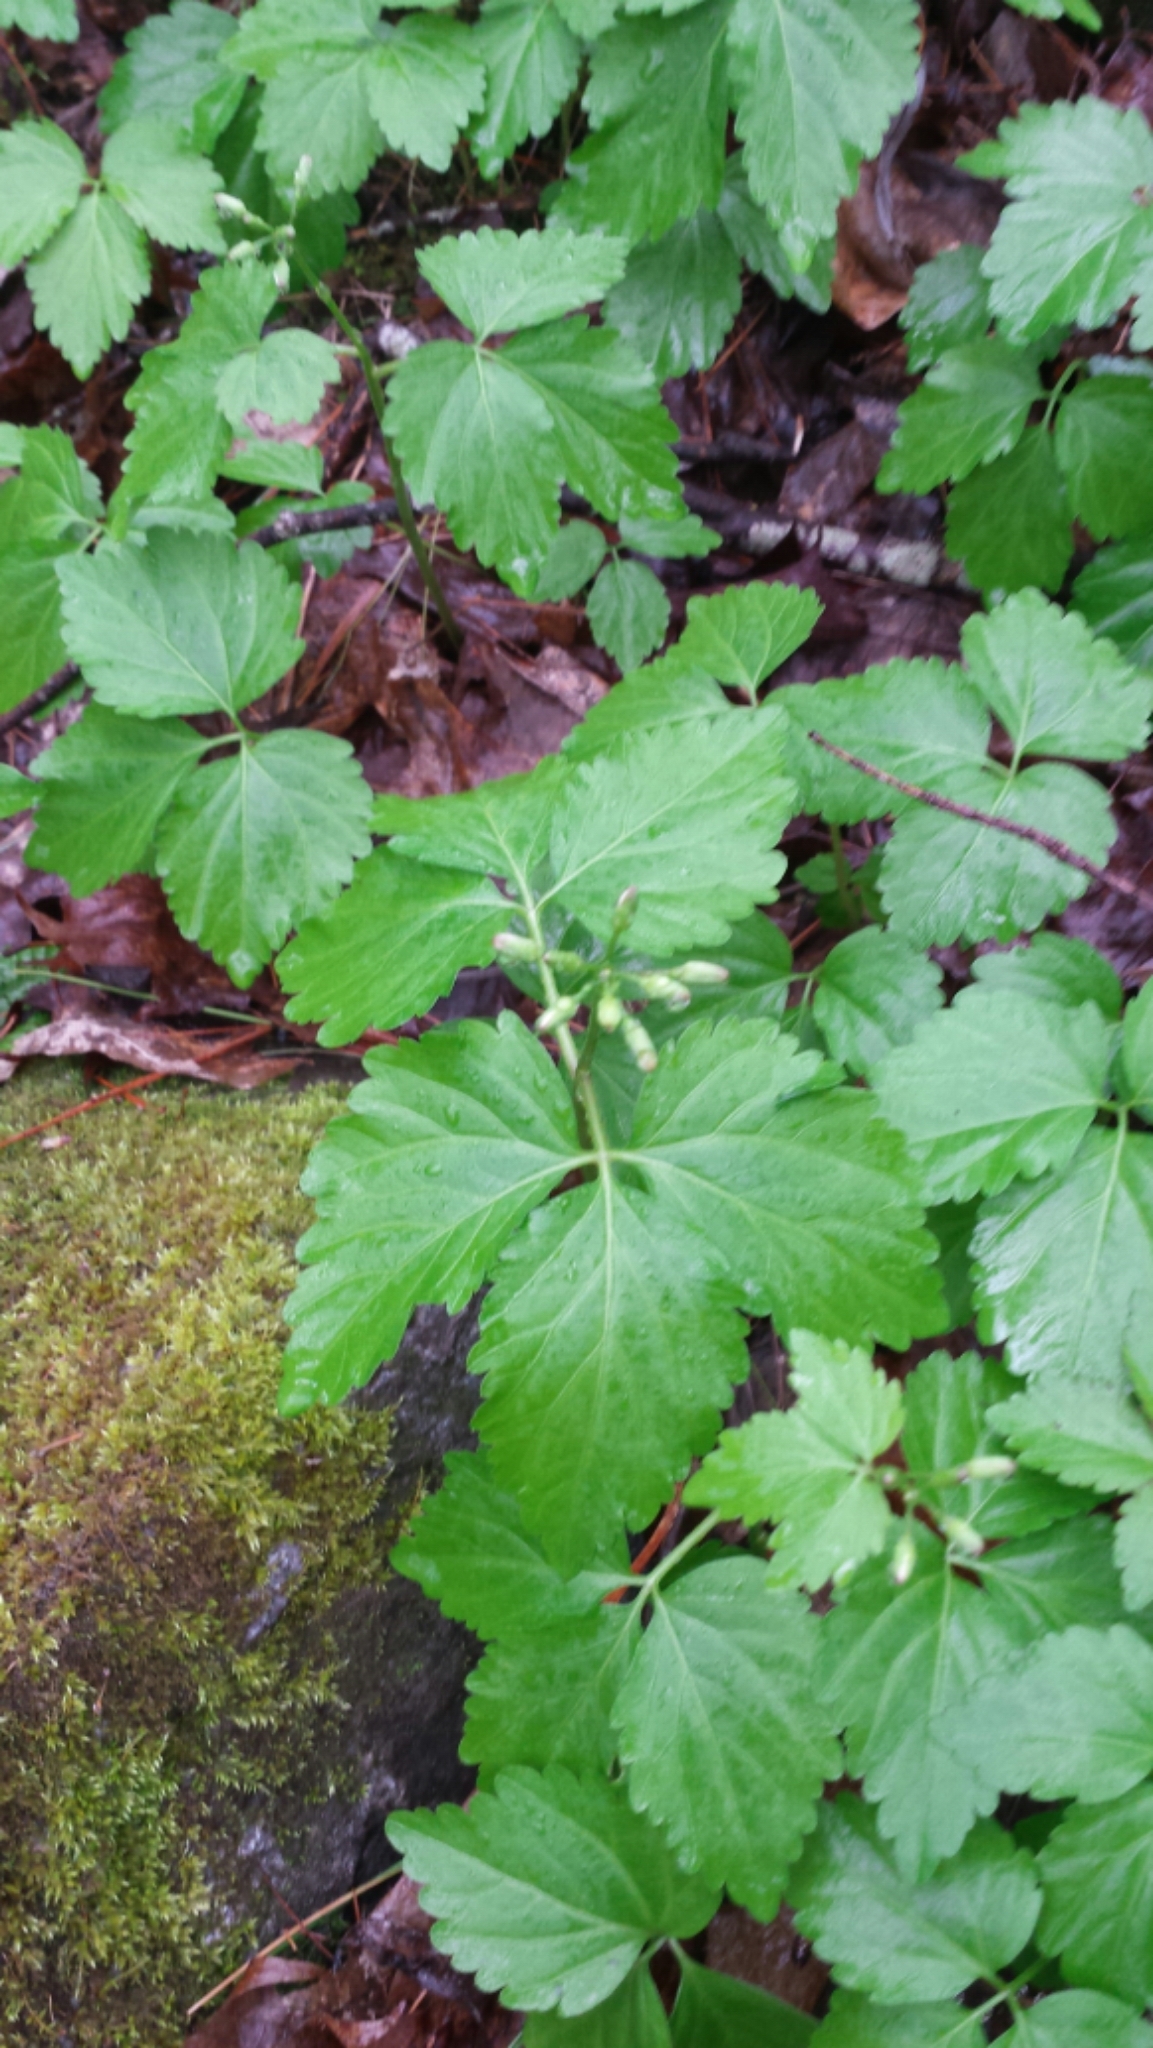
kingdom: Plantae
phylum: Tracheophyta
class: Magnoliopsida
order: Brassicales
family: Brassicaceae
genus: Cardamine
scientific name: Cardamine diphylla
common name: Broad-leaved toothwort
